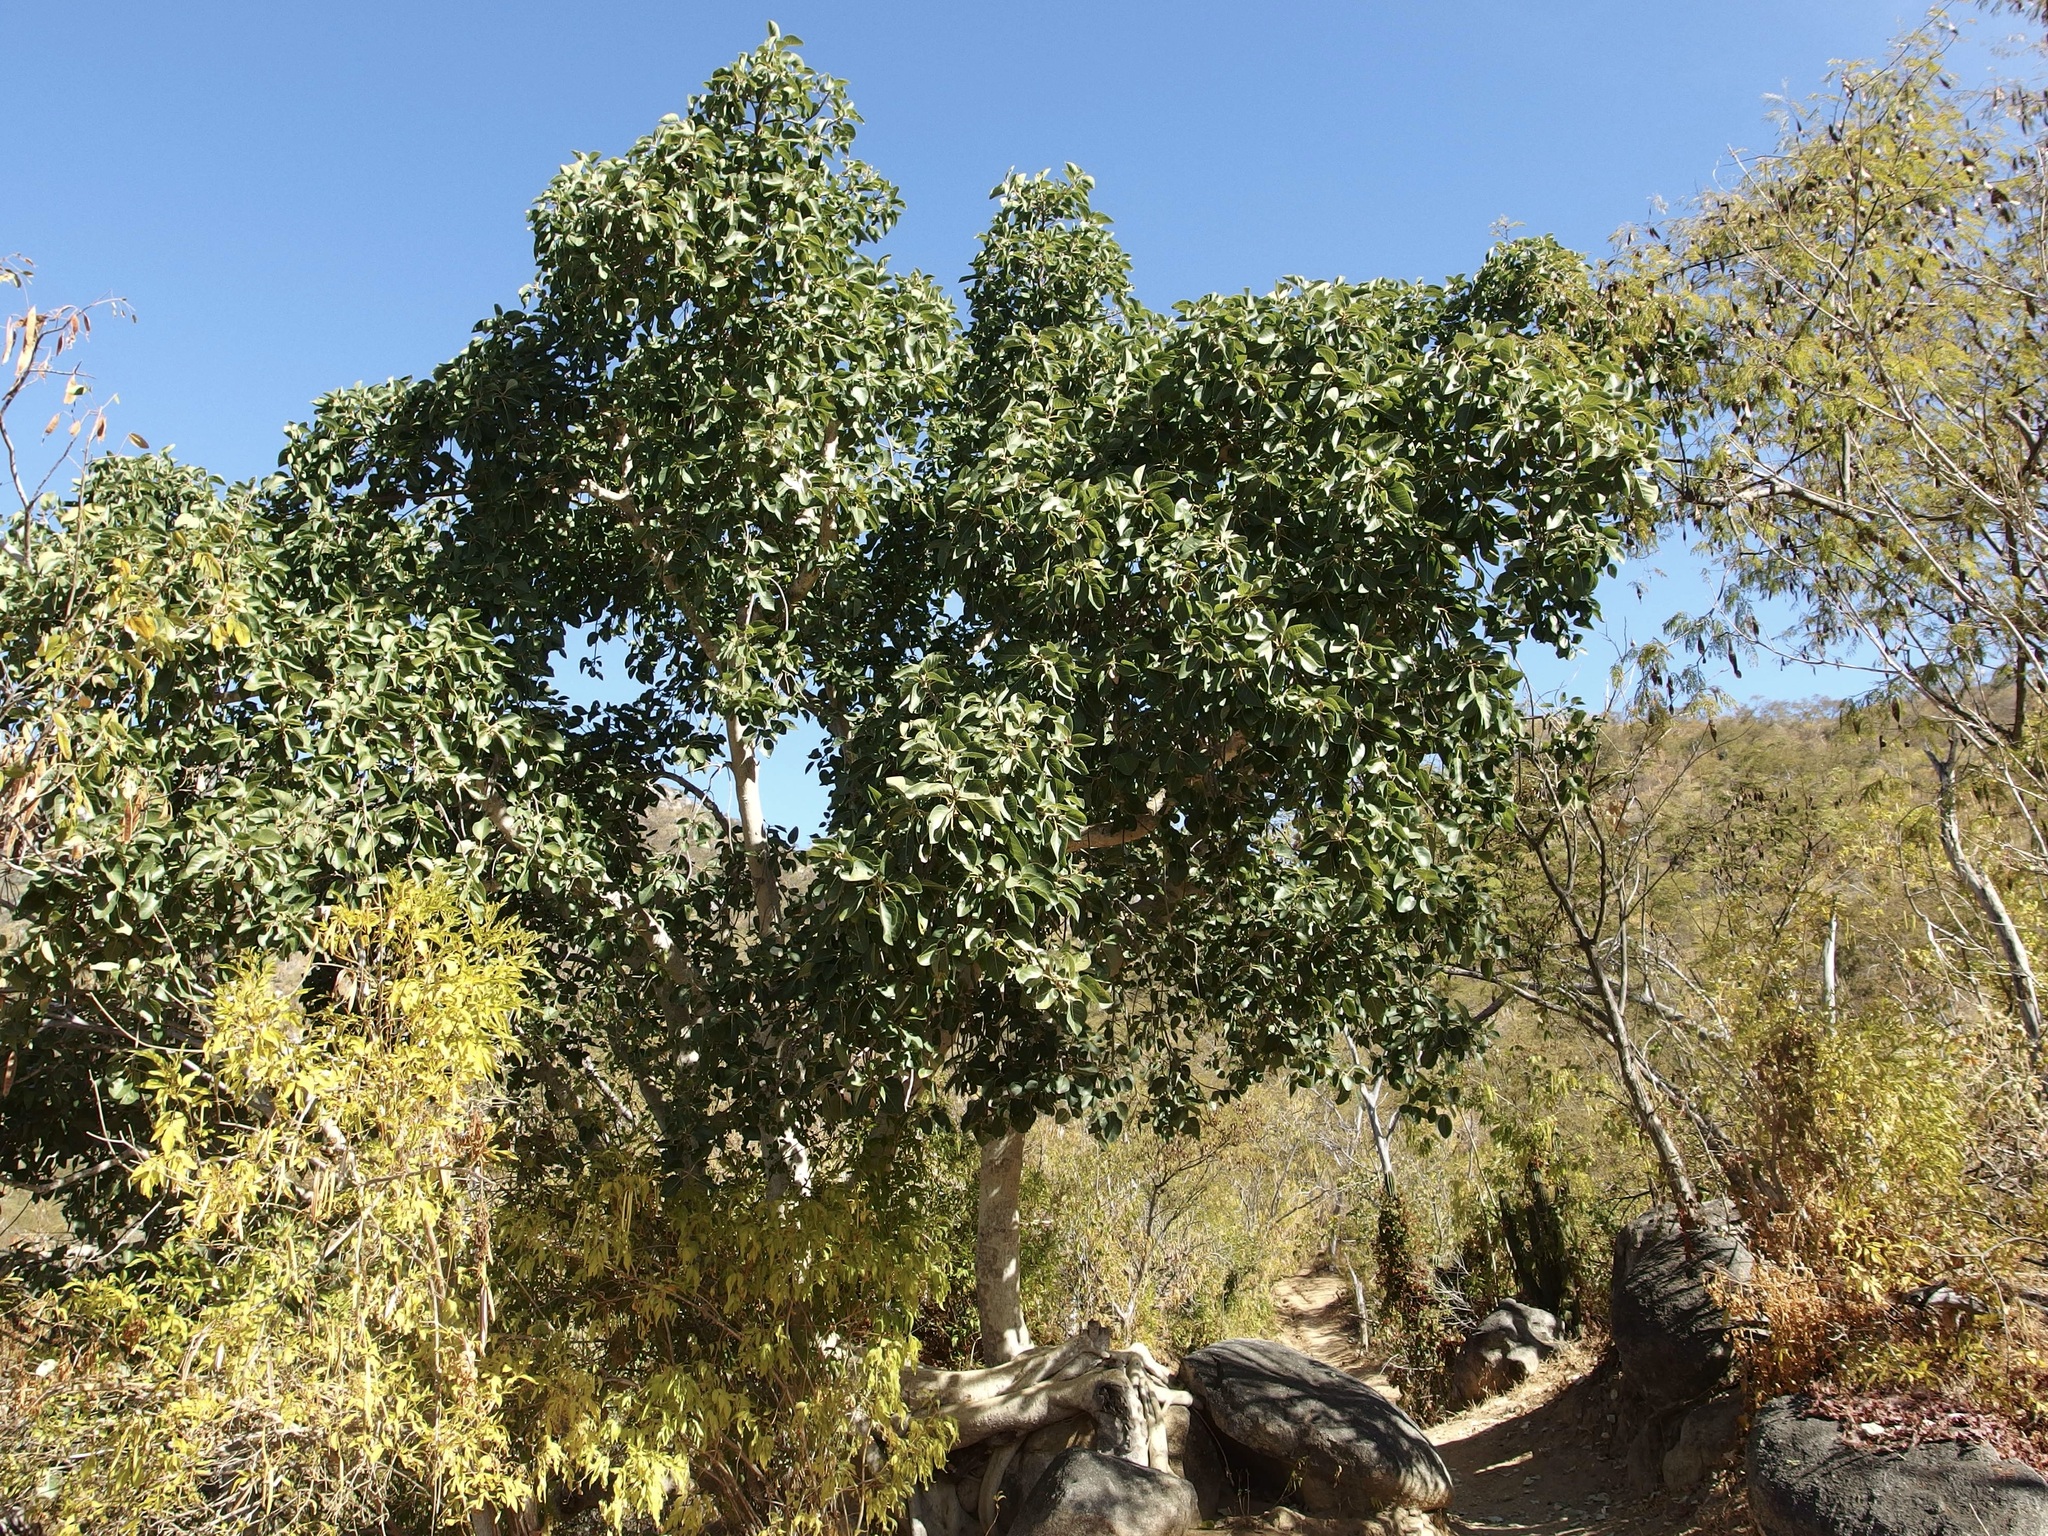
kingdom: Plantae
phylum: Tracheophyta
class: Magnoliopsida
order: Rosales
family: Moraceae
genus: Ficus
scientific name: Ficus petiolaris
